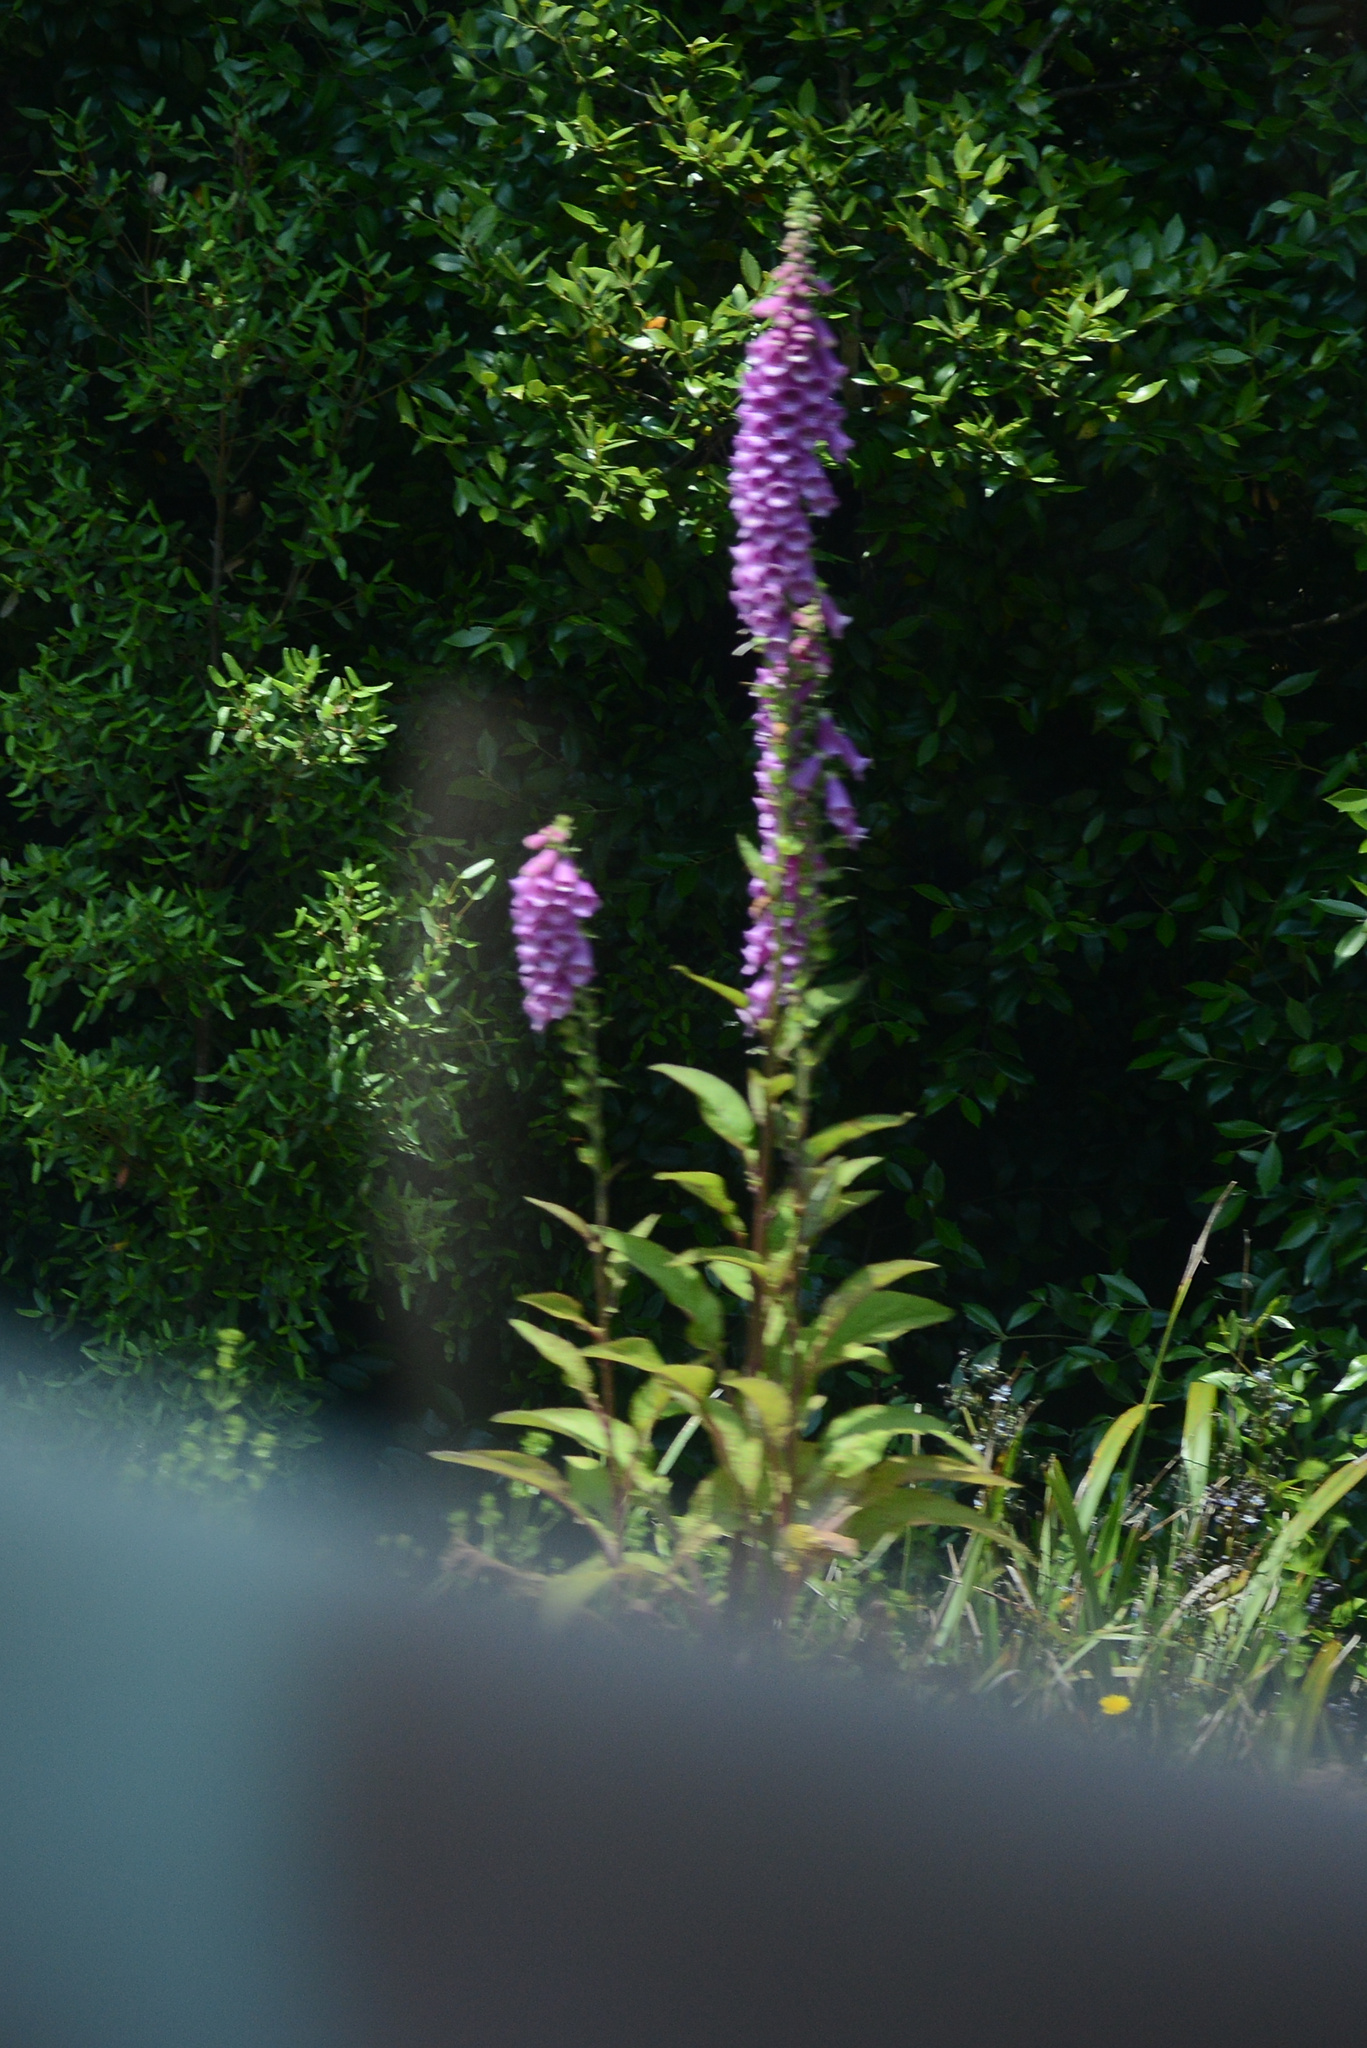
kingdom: Plantae
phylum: Tracheophyta
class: Magnoliopsida
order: Lamiales
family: Plantaginaceae
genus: Digitalis
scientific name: Digitalis purpurea
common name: Foxglove
